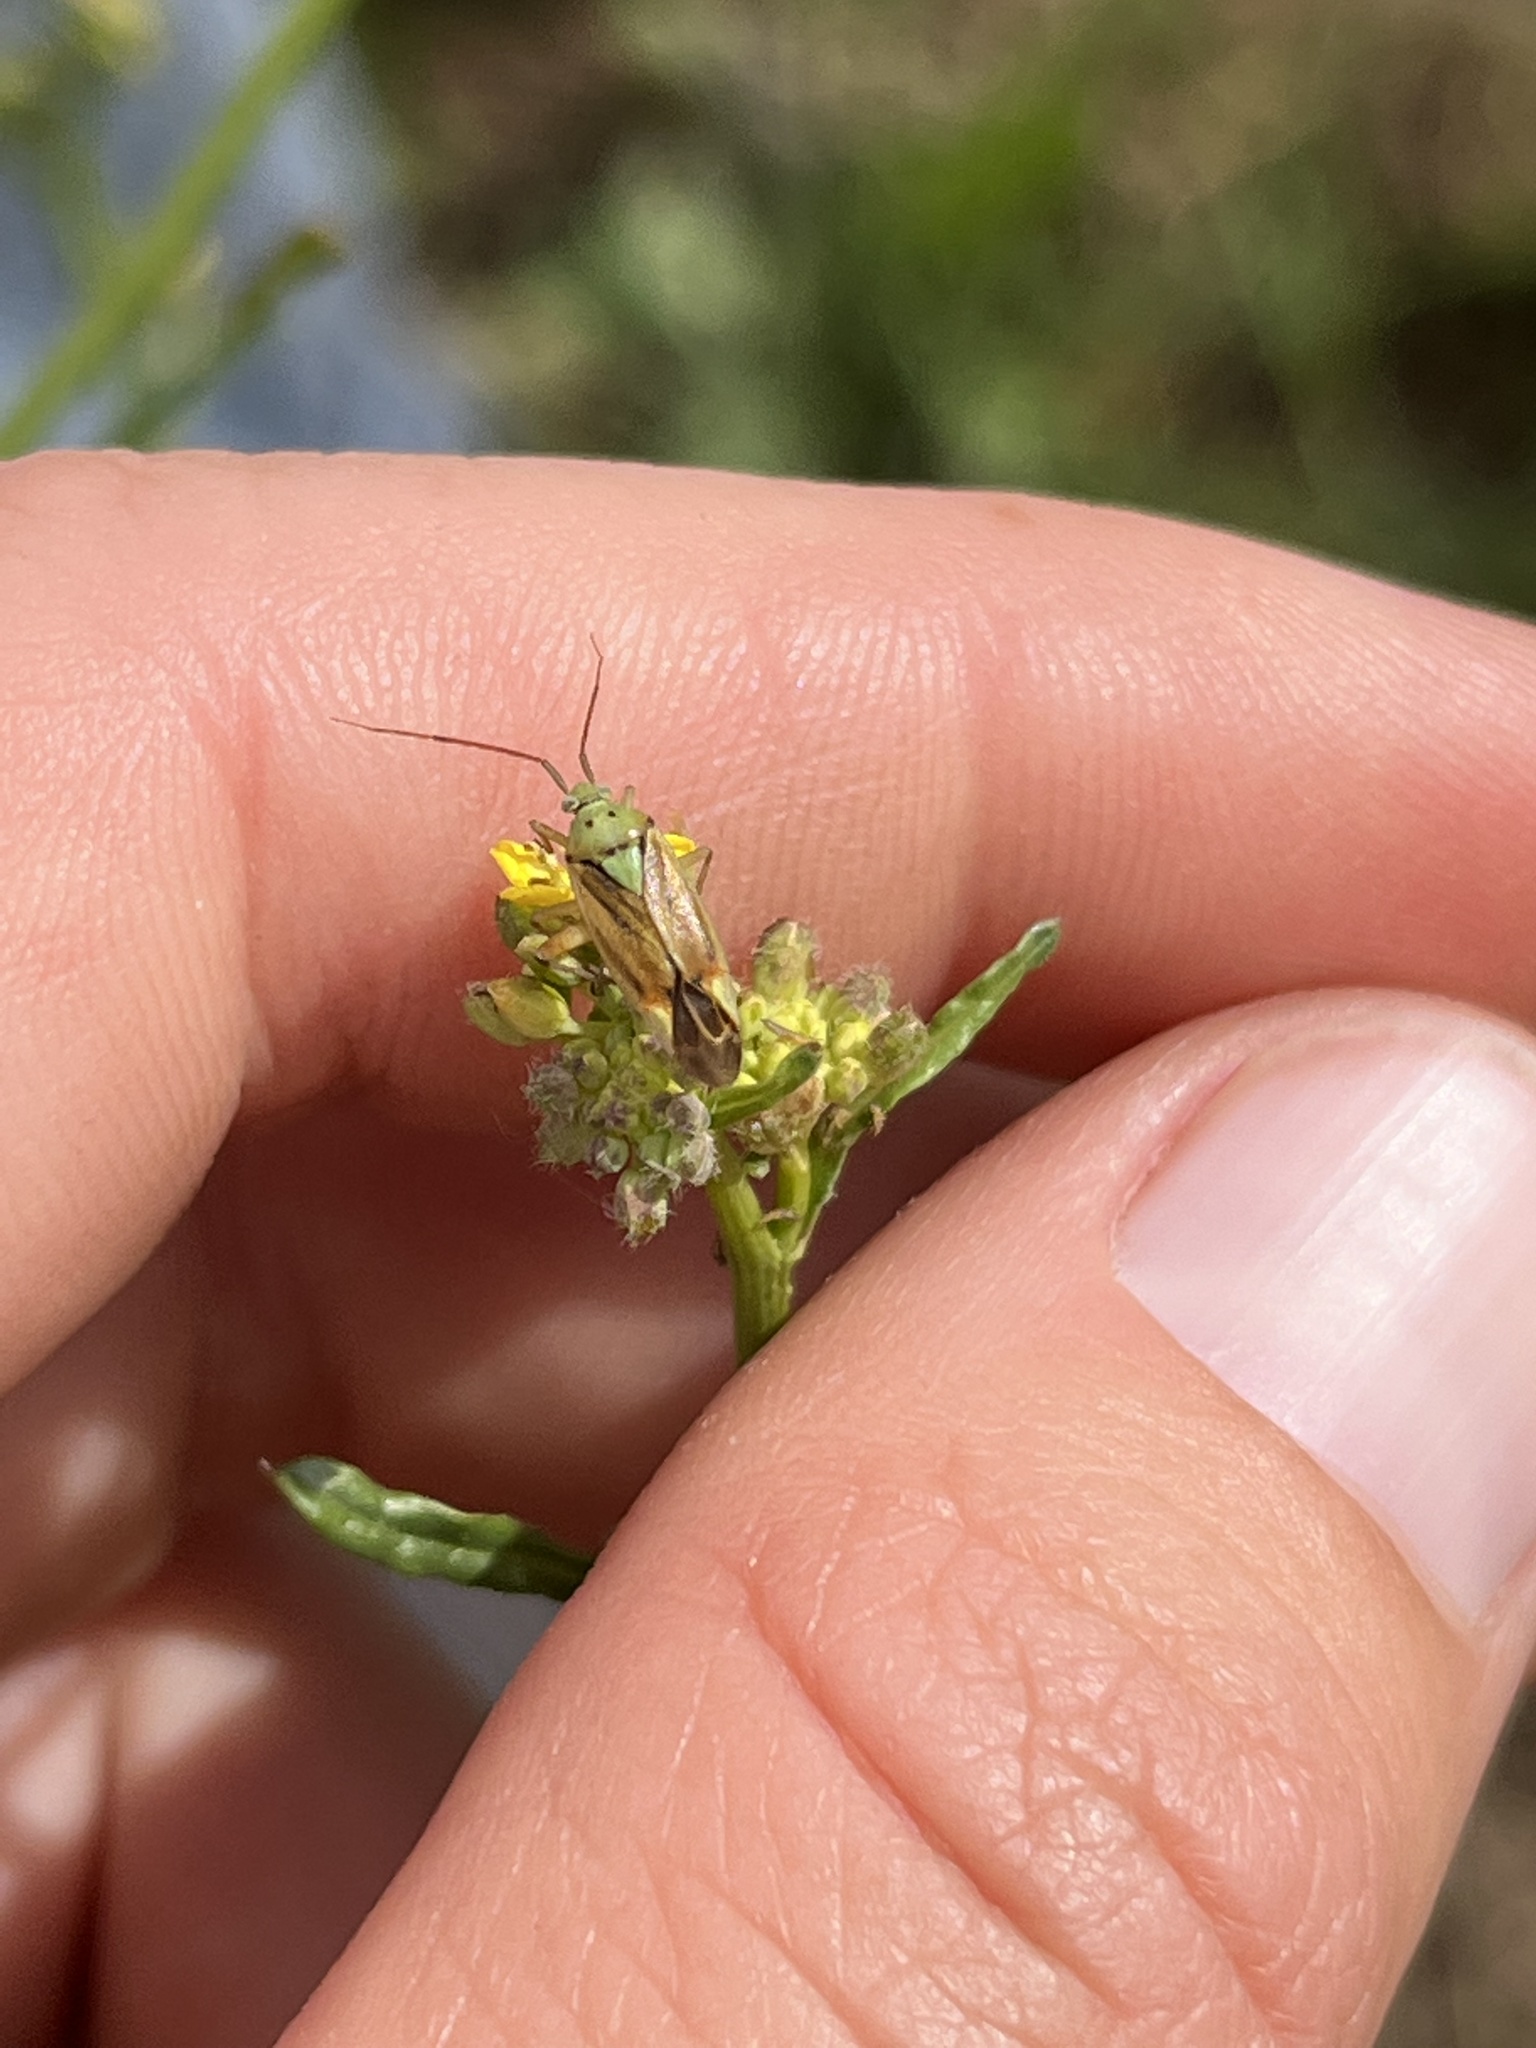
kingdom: Animalia
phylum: Arthropoda
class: Insecta
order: Hemiptera
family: Miridae
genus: Closterotomus
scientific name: Closterotomus norvegicus
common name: Plant bug
